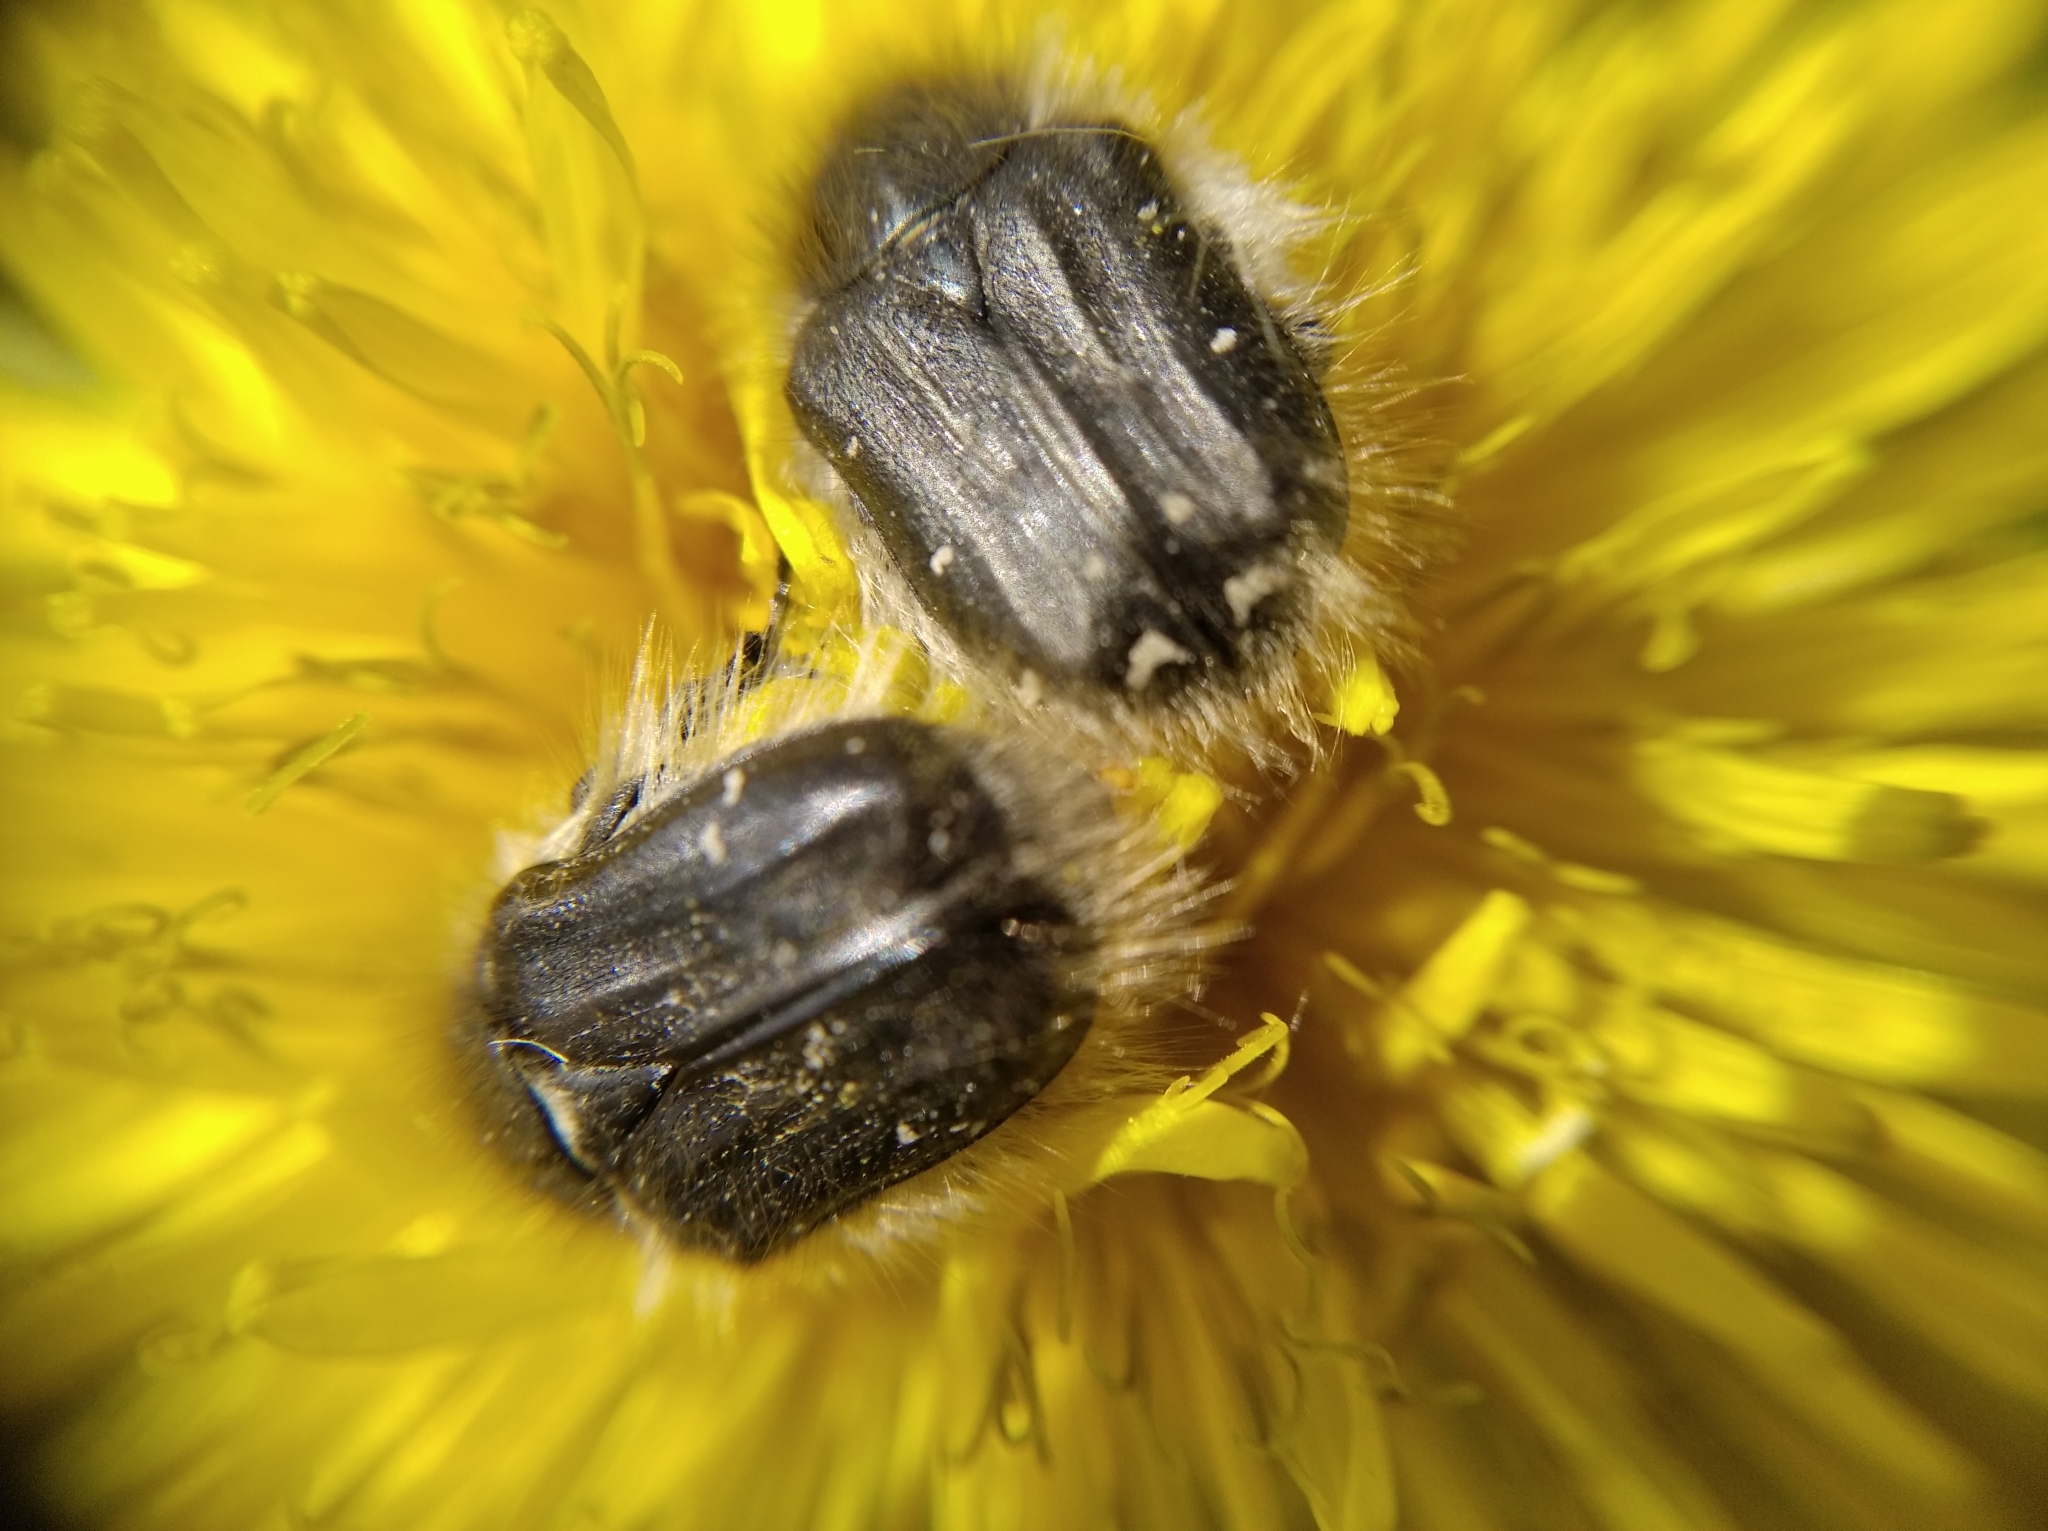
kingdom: Animalia
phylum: Arthropoda
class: Insecta
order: Coleoptera
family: Scarabaeidae
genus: Tropinota
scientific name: Tropinota hirta
